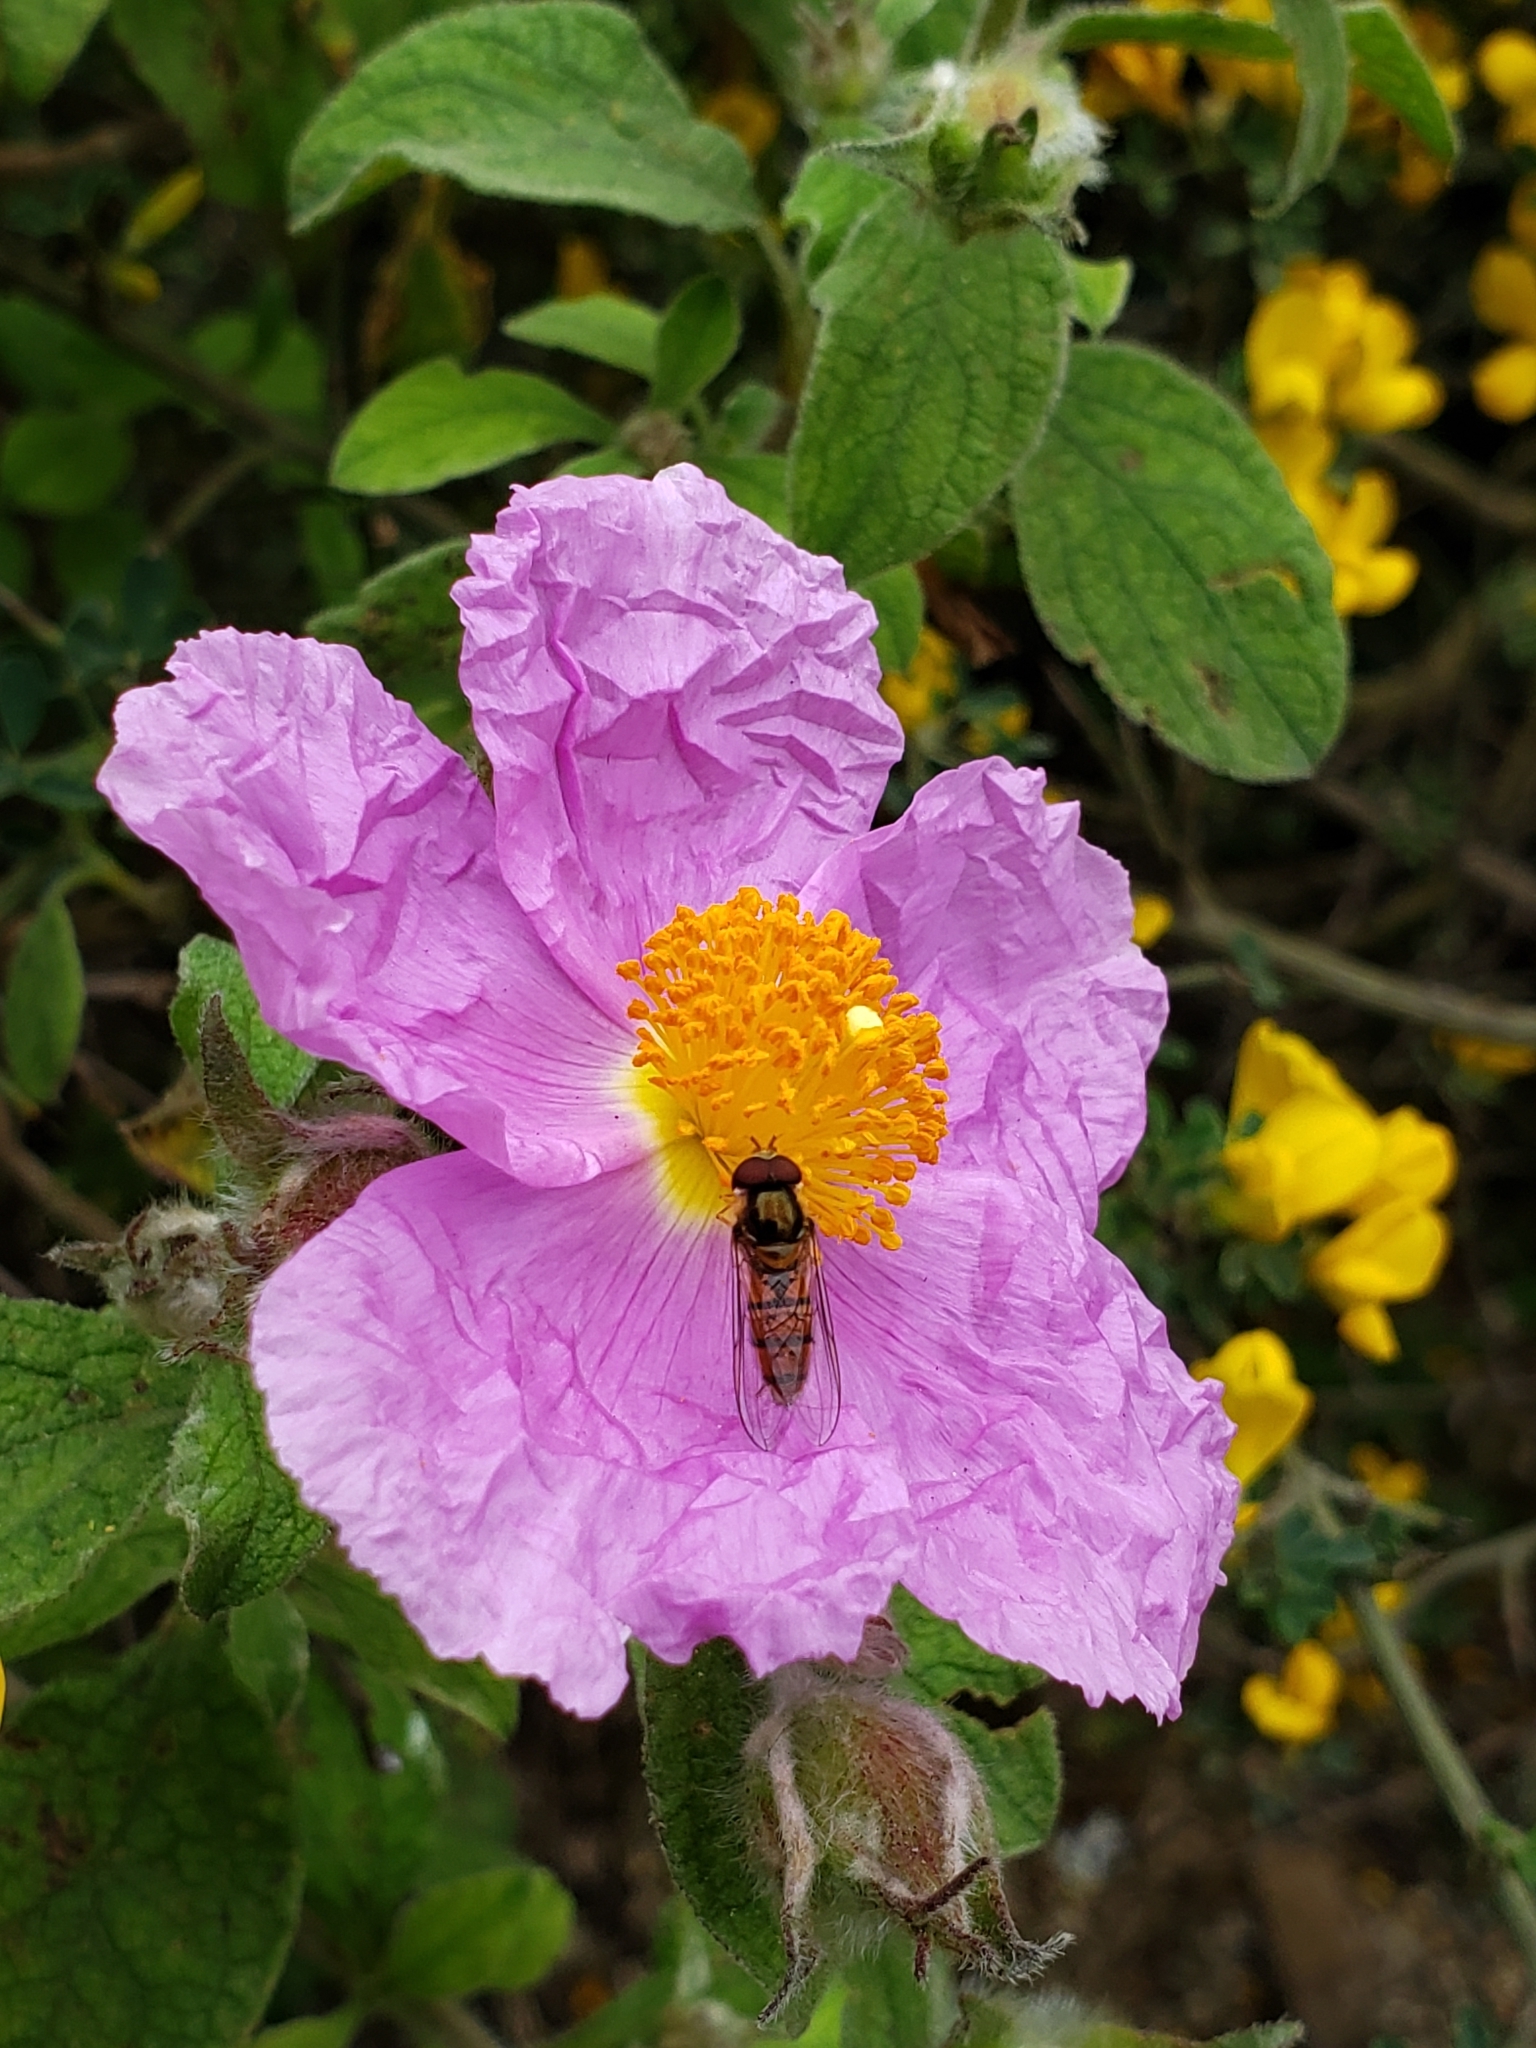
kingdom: Animalia
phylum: Arthropoda
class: Insecta
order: Diptera
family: Syrphidae
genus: Melanostoma
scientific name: Melanostoma scalare
